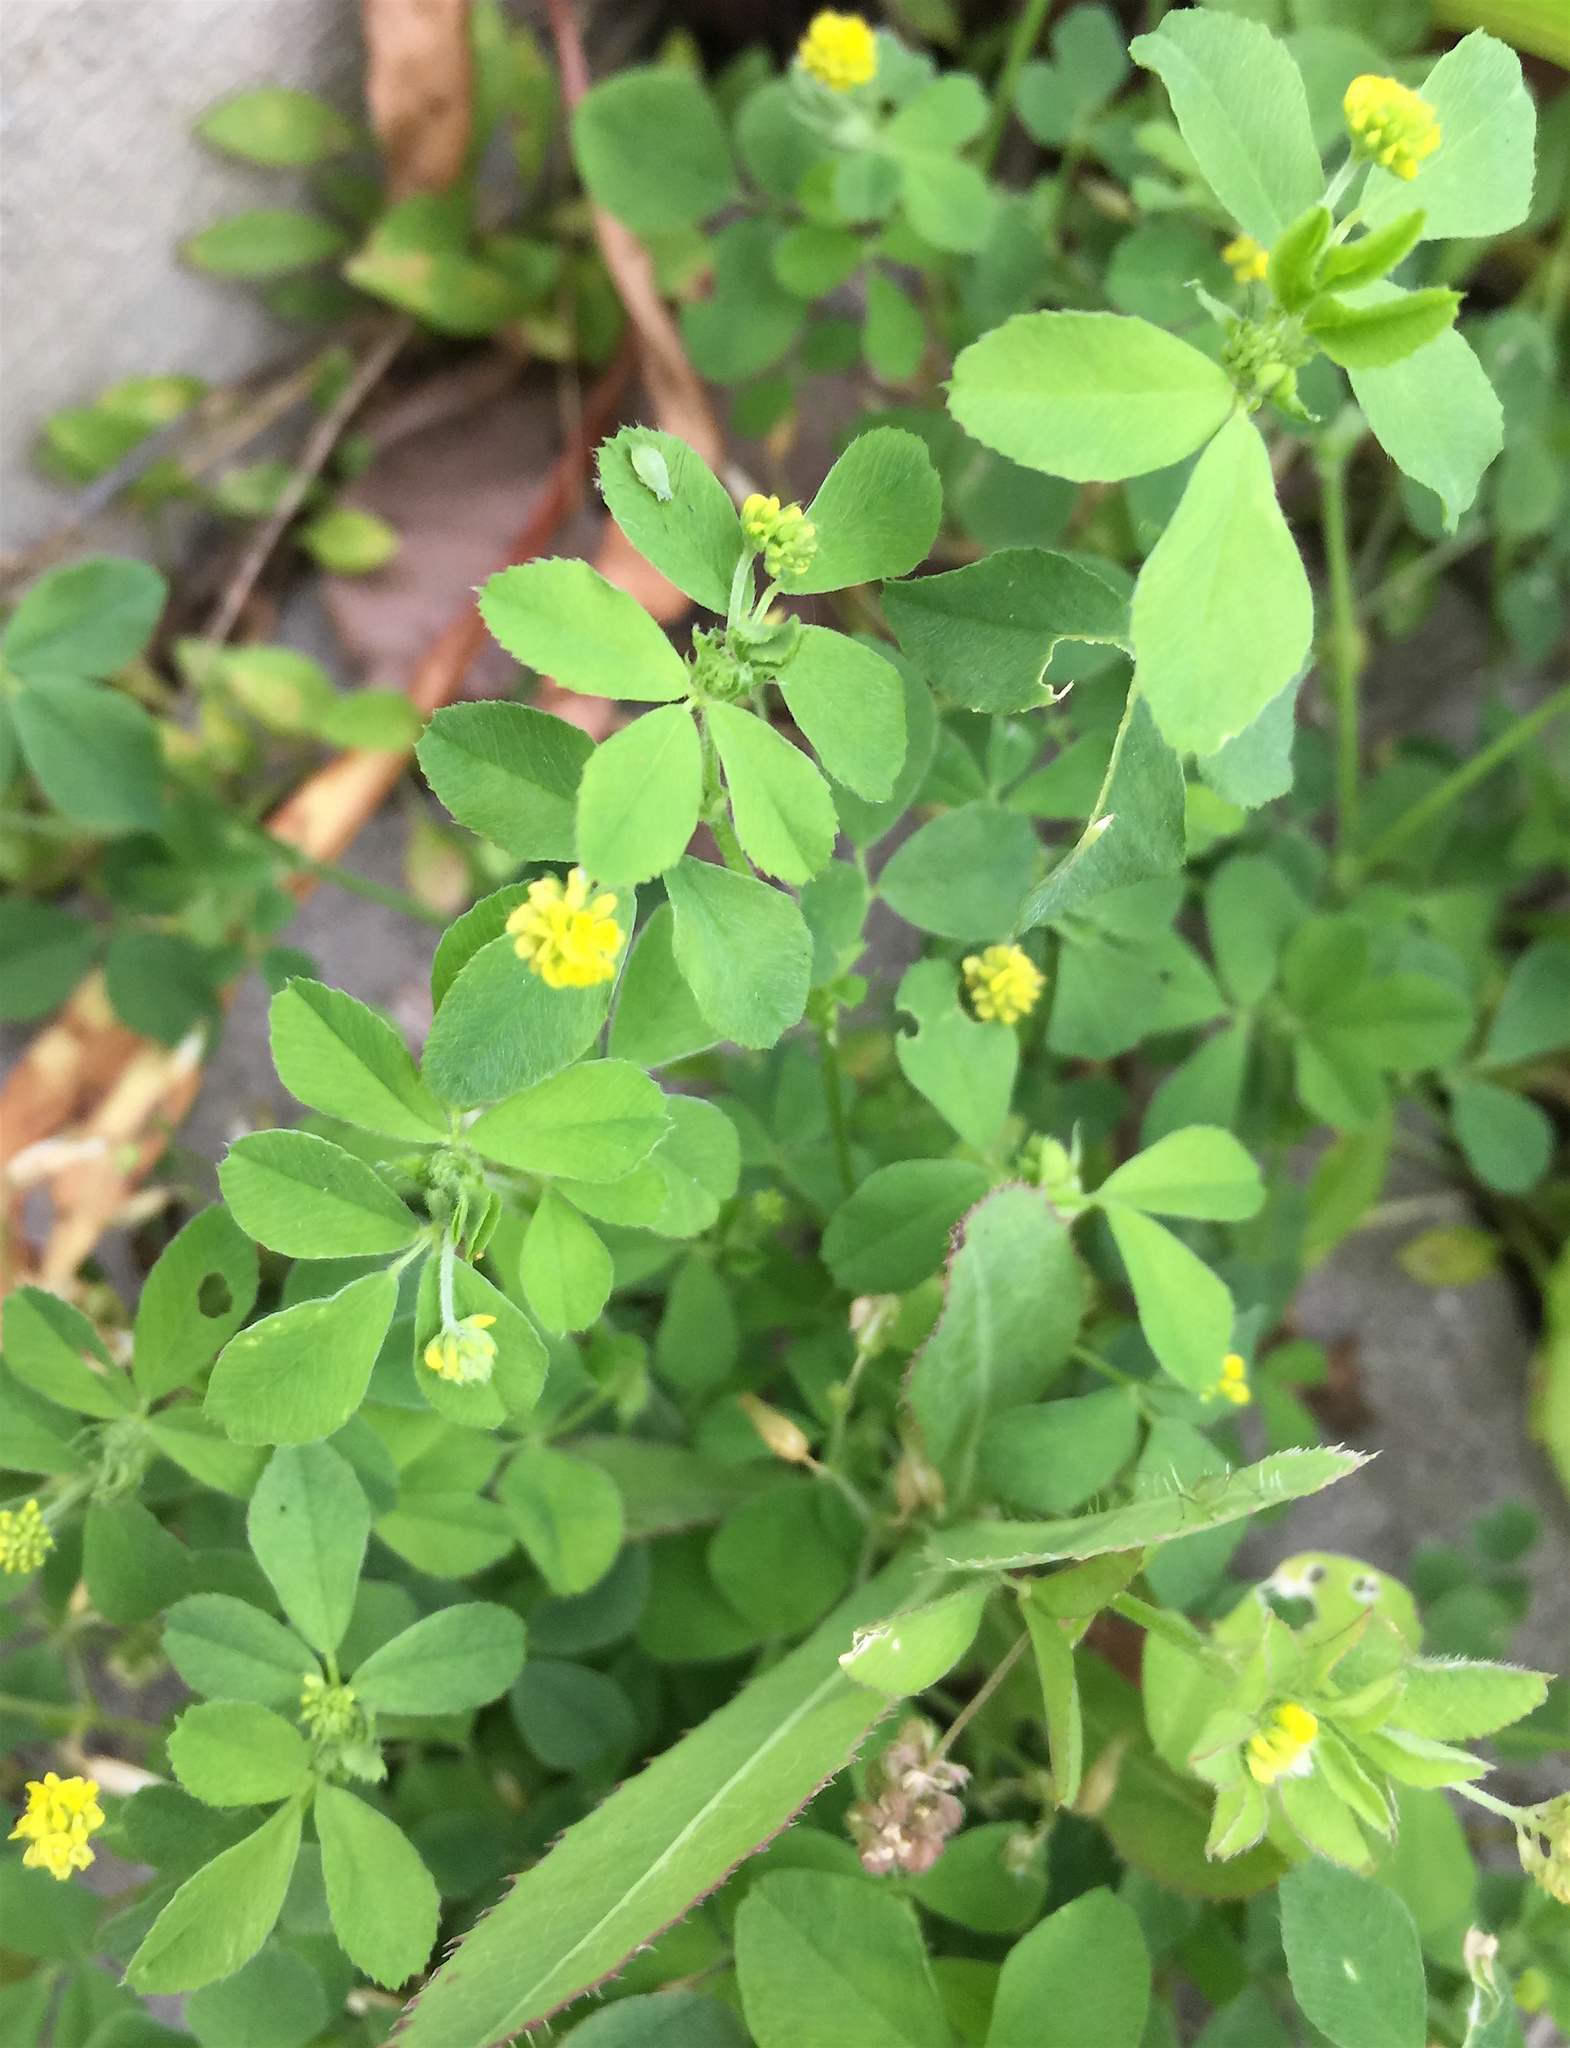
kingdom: Plantae
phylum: Tracheophyta
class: Magnoliopsida
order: Fabales
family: Fabaceae
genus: Medicago
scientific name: Medicago lupulina
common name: Black medick
